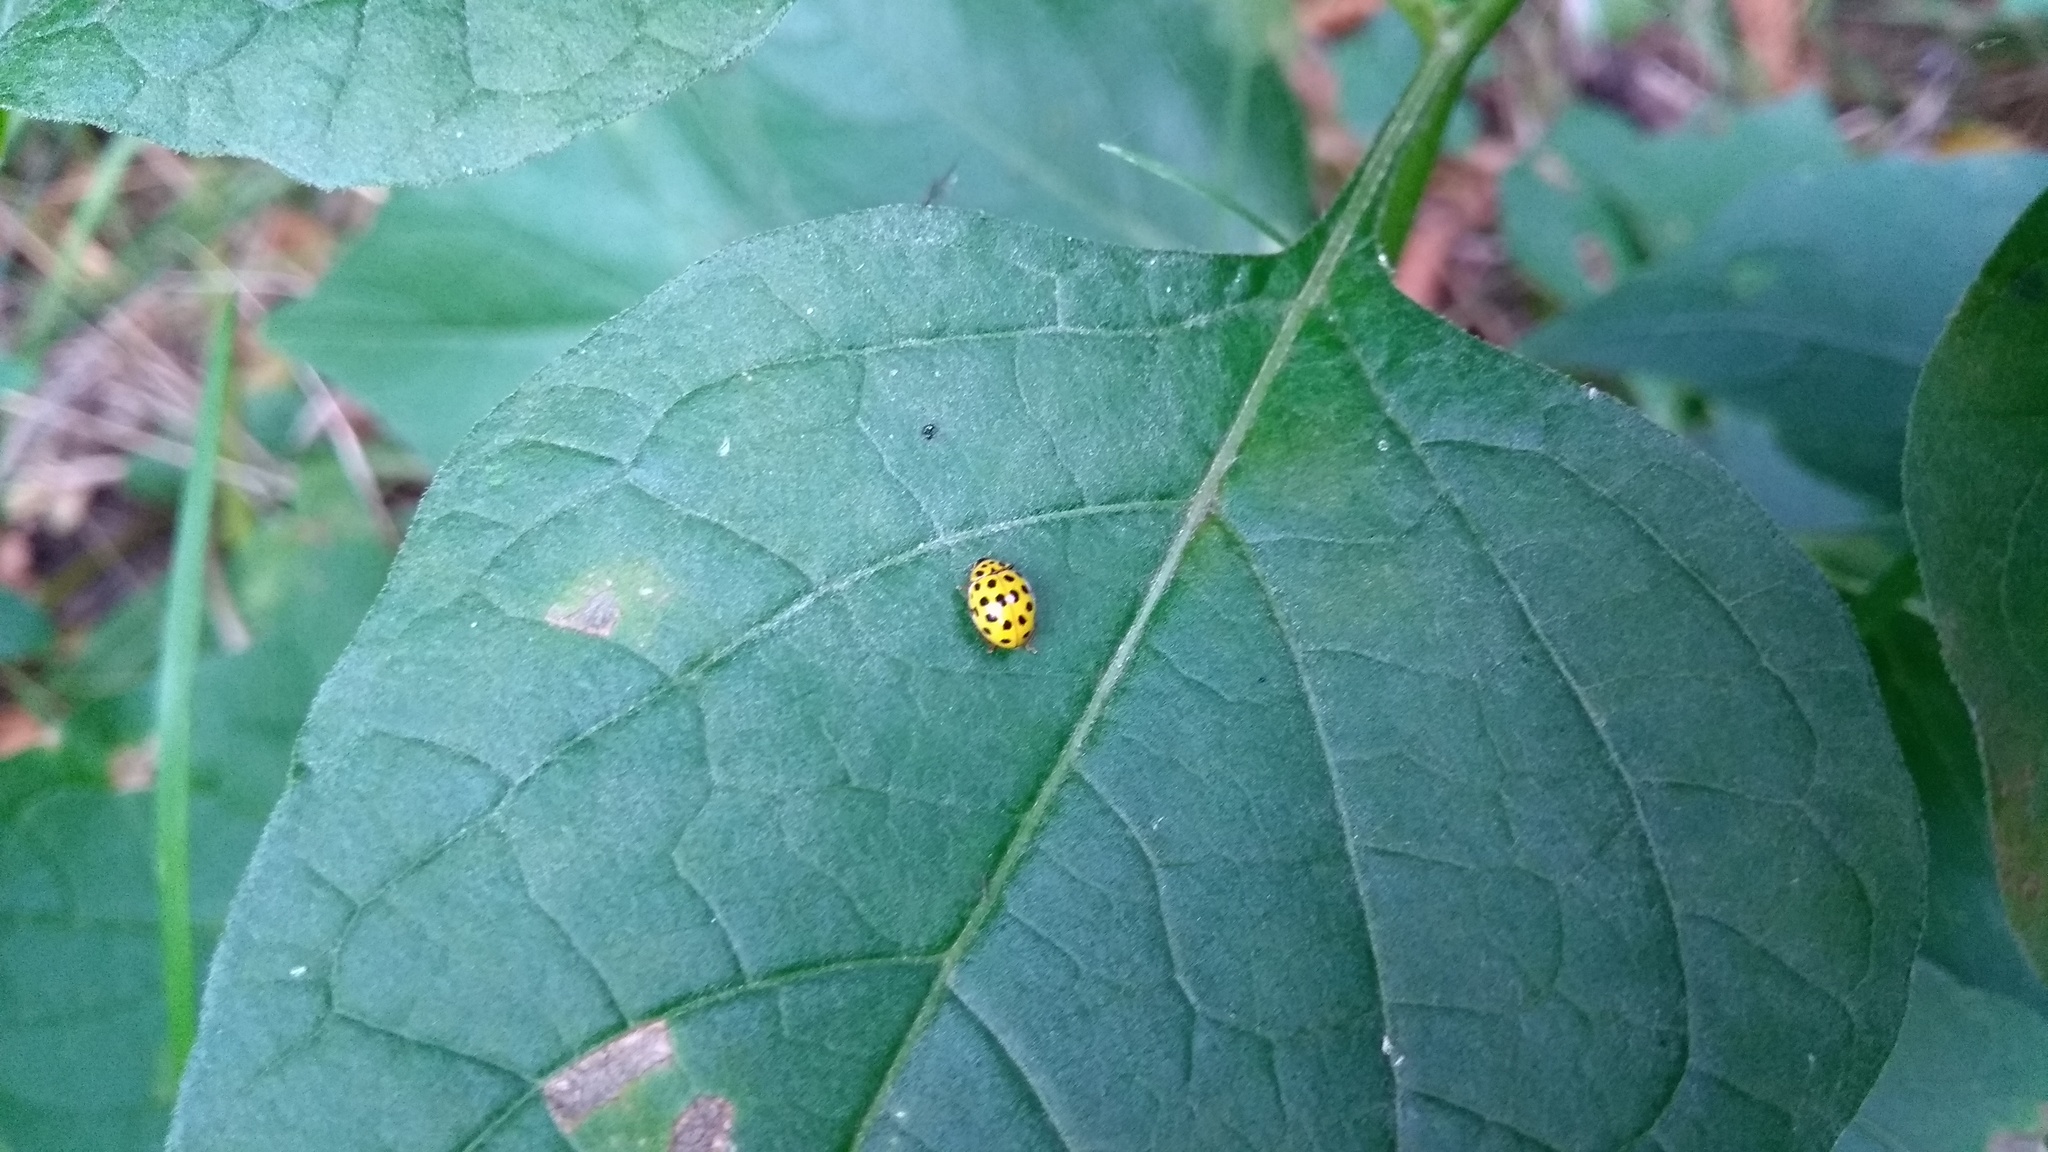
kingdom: Animalia
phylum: Arthropoda
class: Insecta
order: Coleoptera
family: Coccinellidae
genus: Psyllobora
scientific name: Psyllobora vigintiduopunctata
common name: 22-spot ladybird
